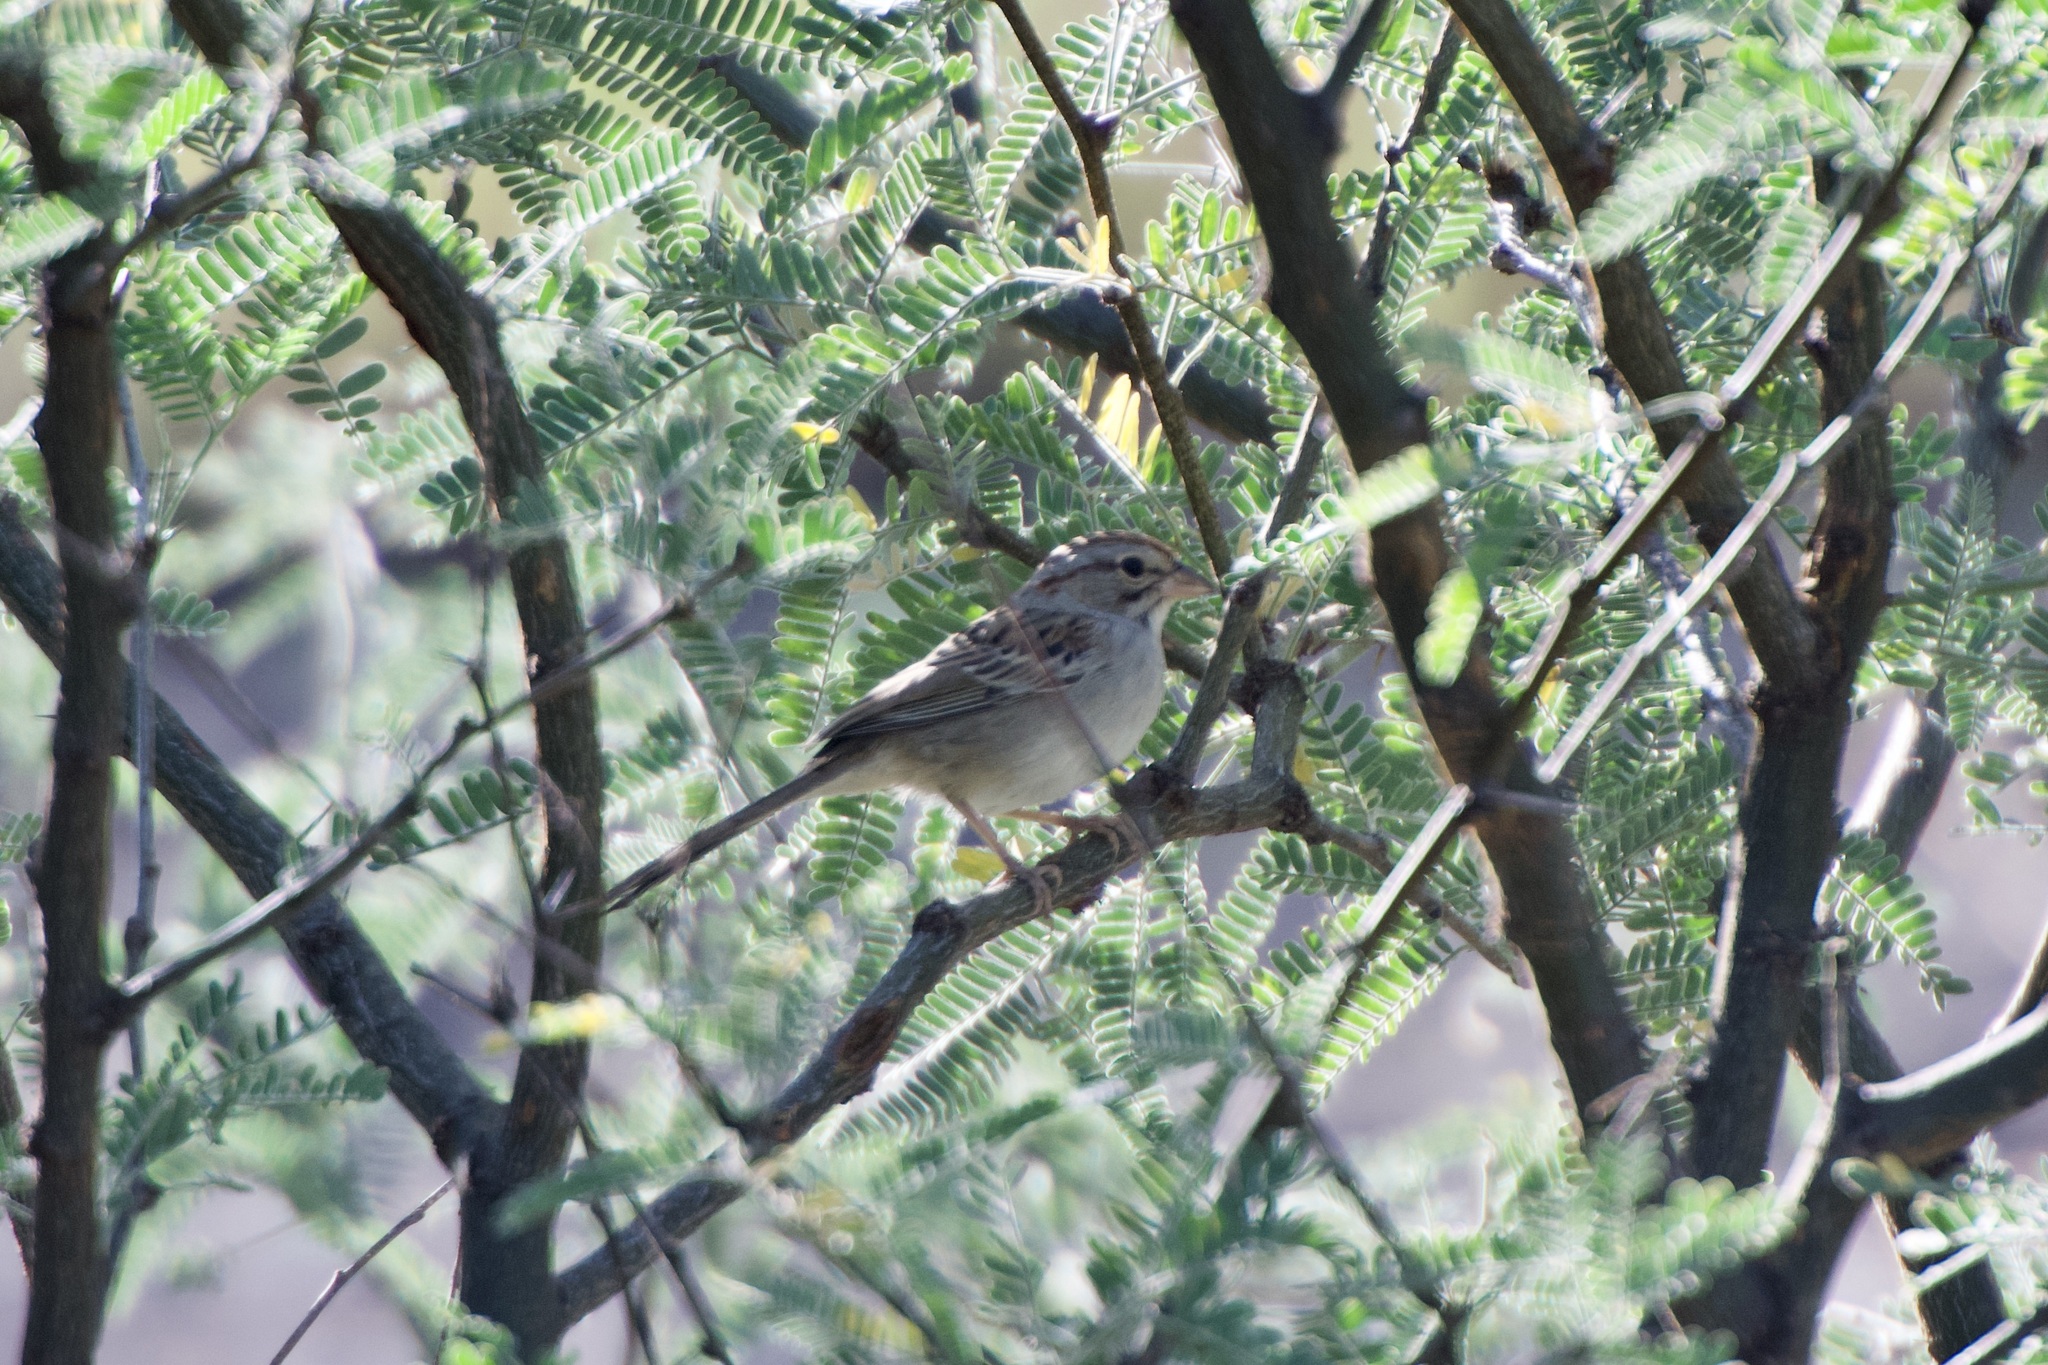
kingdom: Animalia
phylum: Chordata
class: Aves
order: Passeriformes
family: Passerellidae
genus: Peucaea
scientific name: Peucaea carpalis
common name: Rufous-winged sparrow
